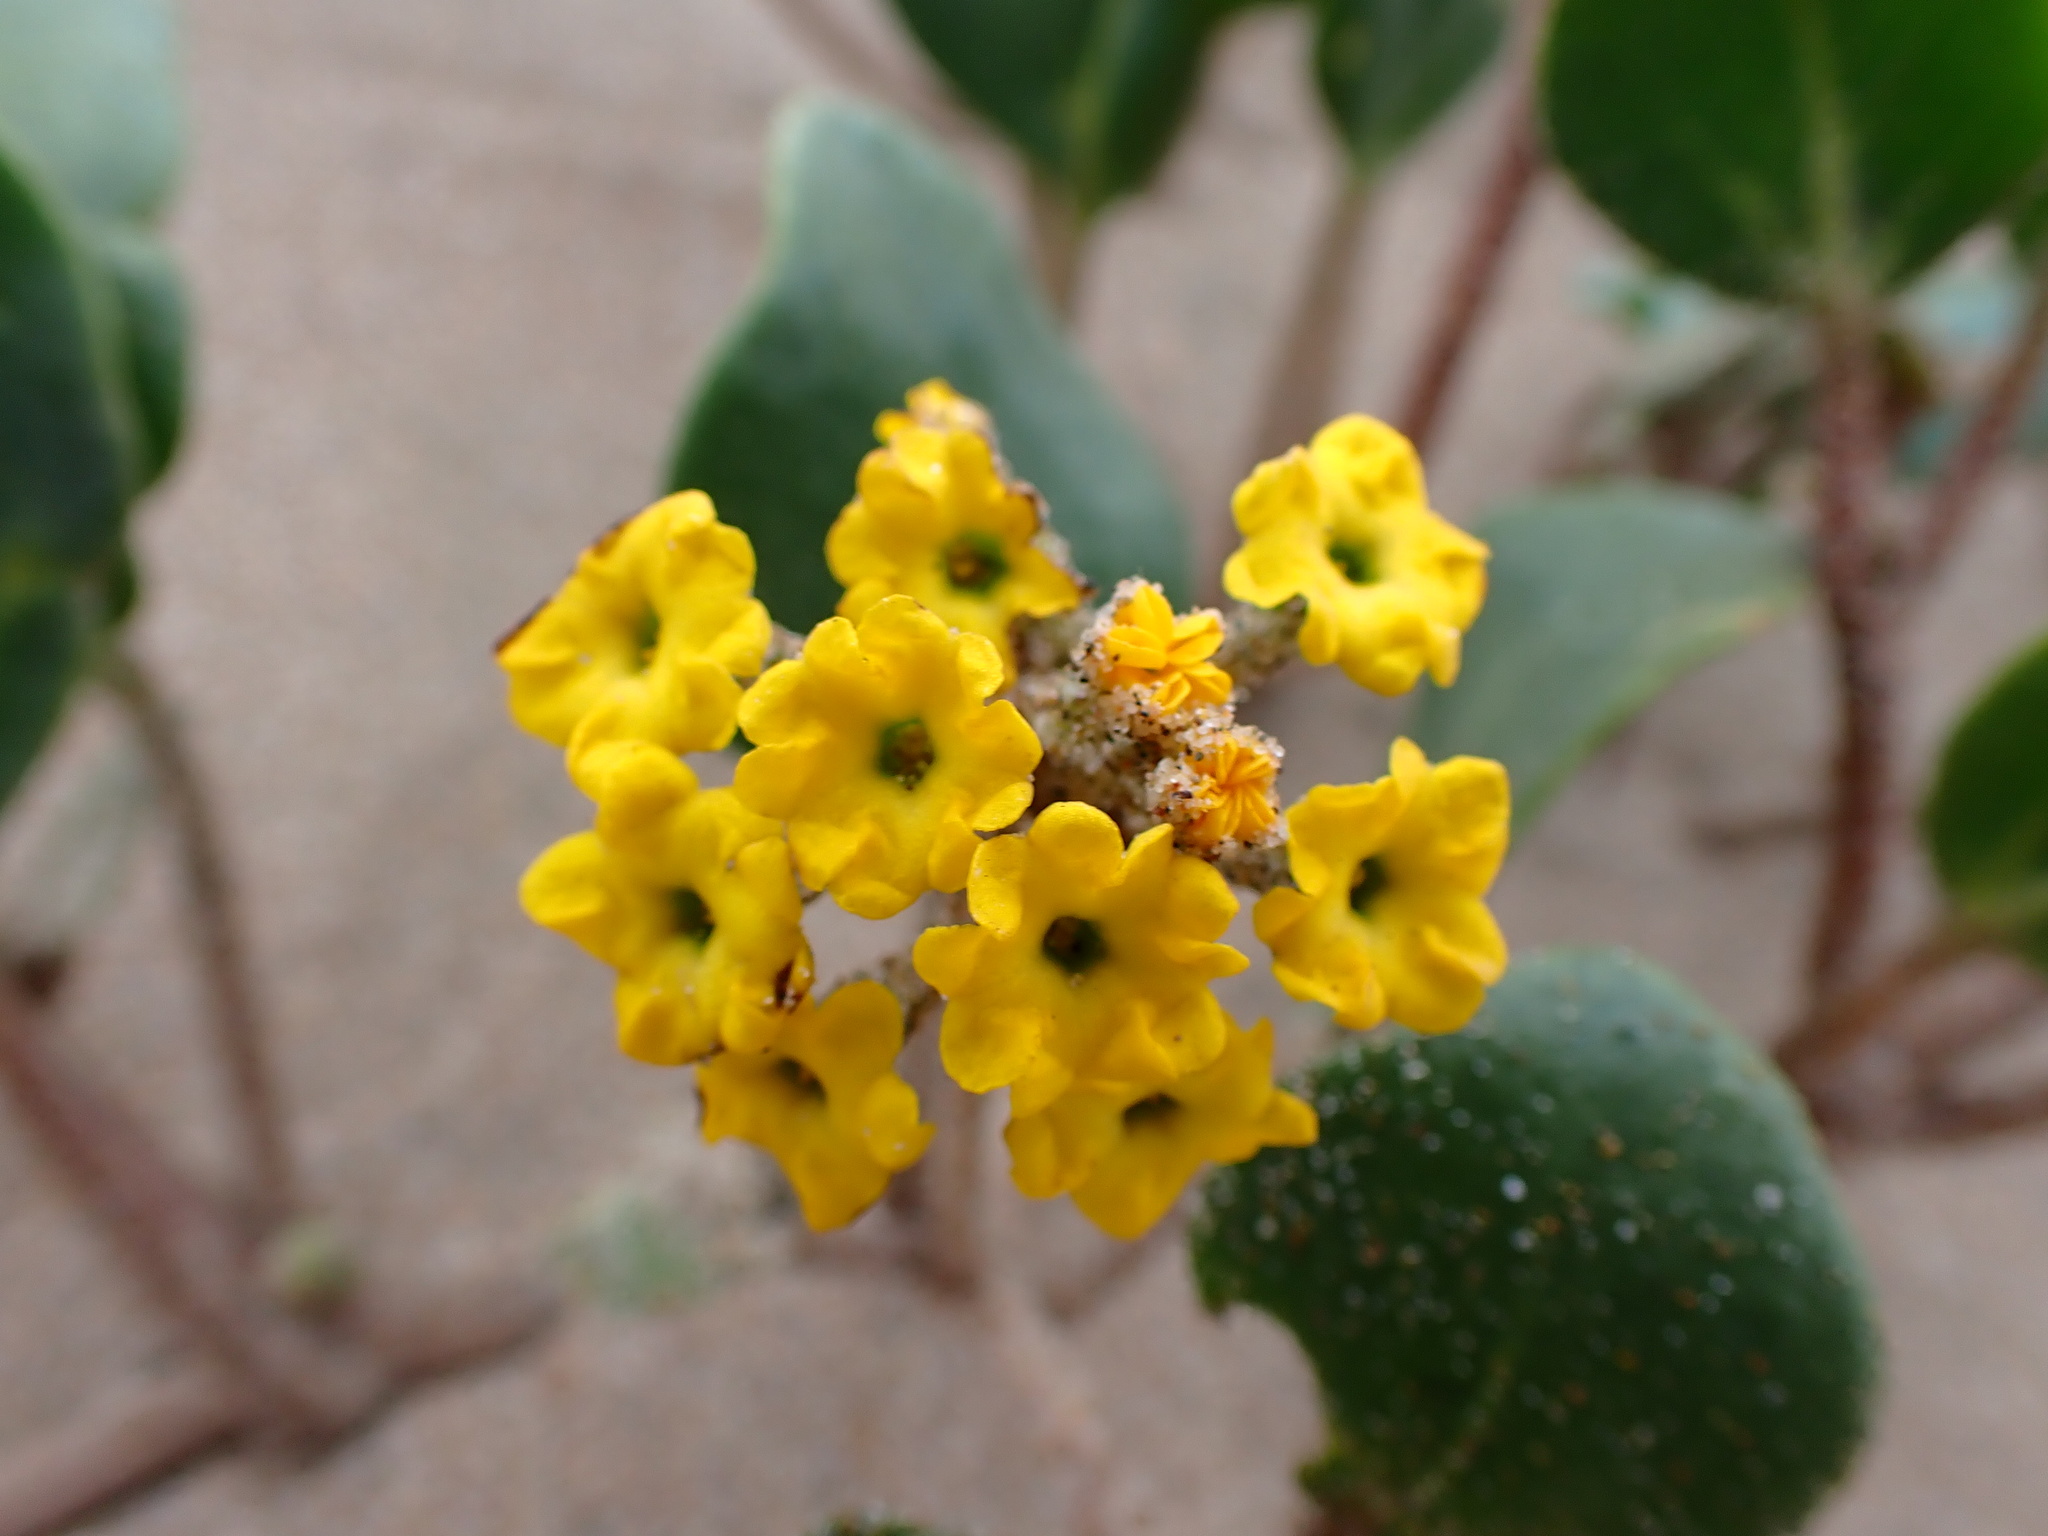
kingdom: Plantae
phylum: Tracheophyta
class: Magnoliopsida
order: Caryophyllales
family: Nyctaginaceae
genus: Abronia
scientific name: Abronia latifolia
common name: Yellow sand-verbena
